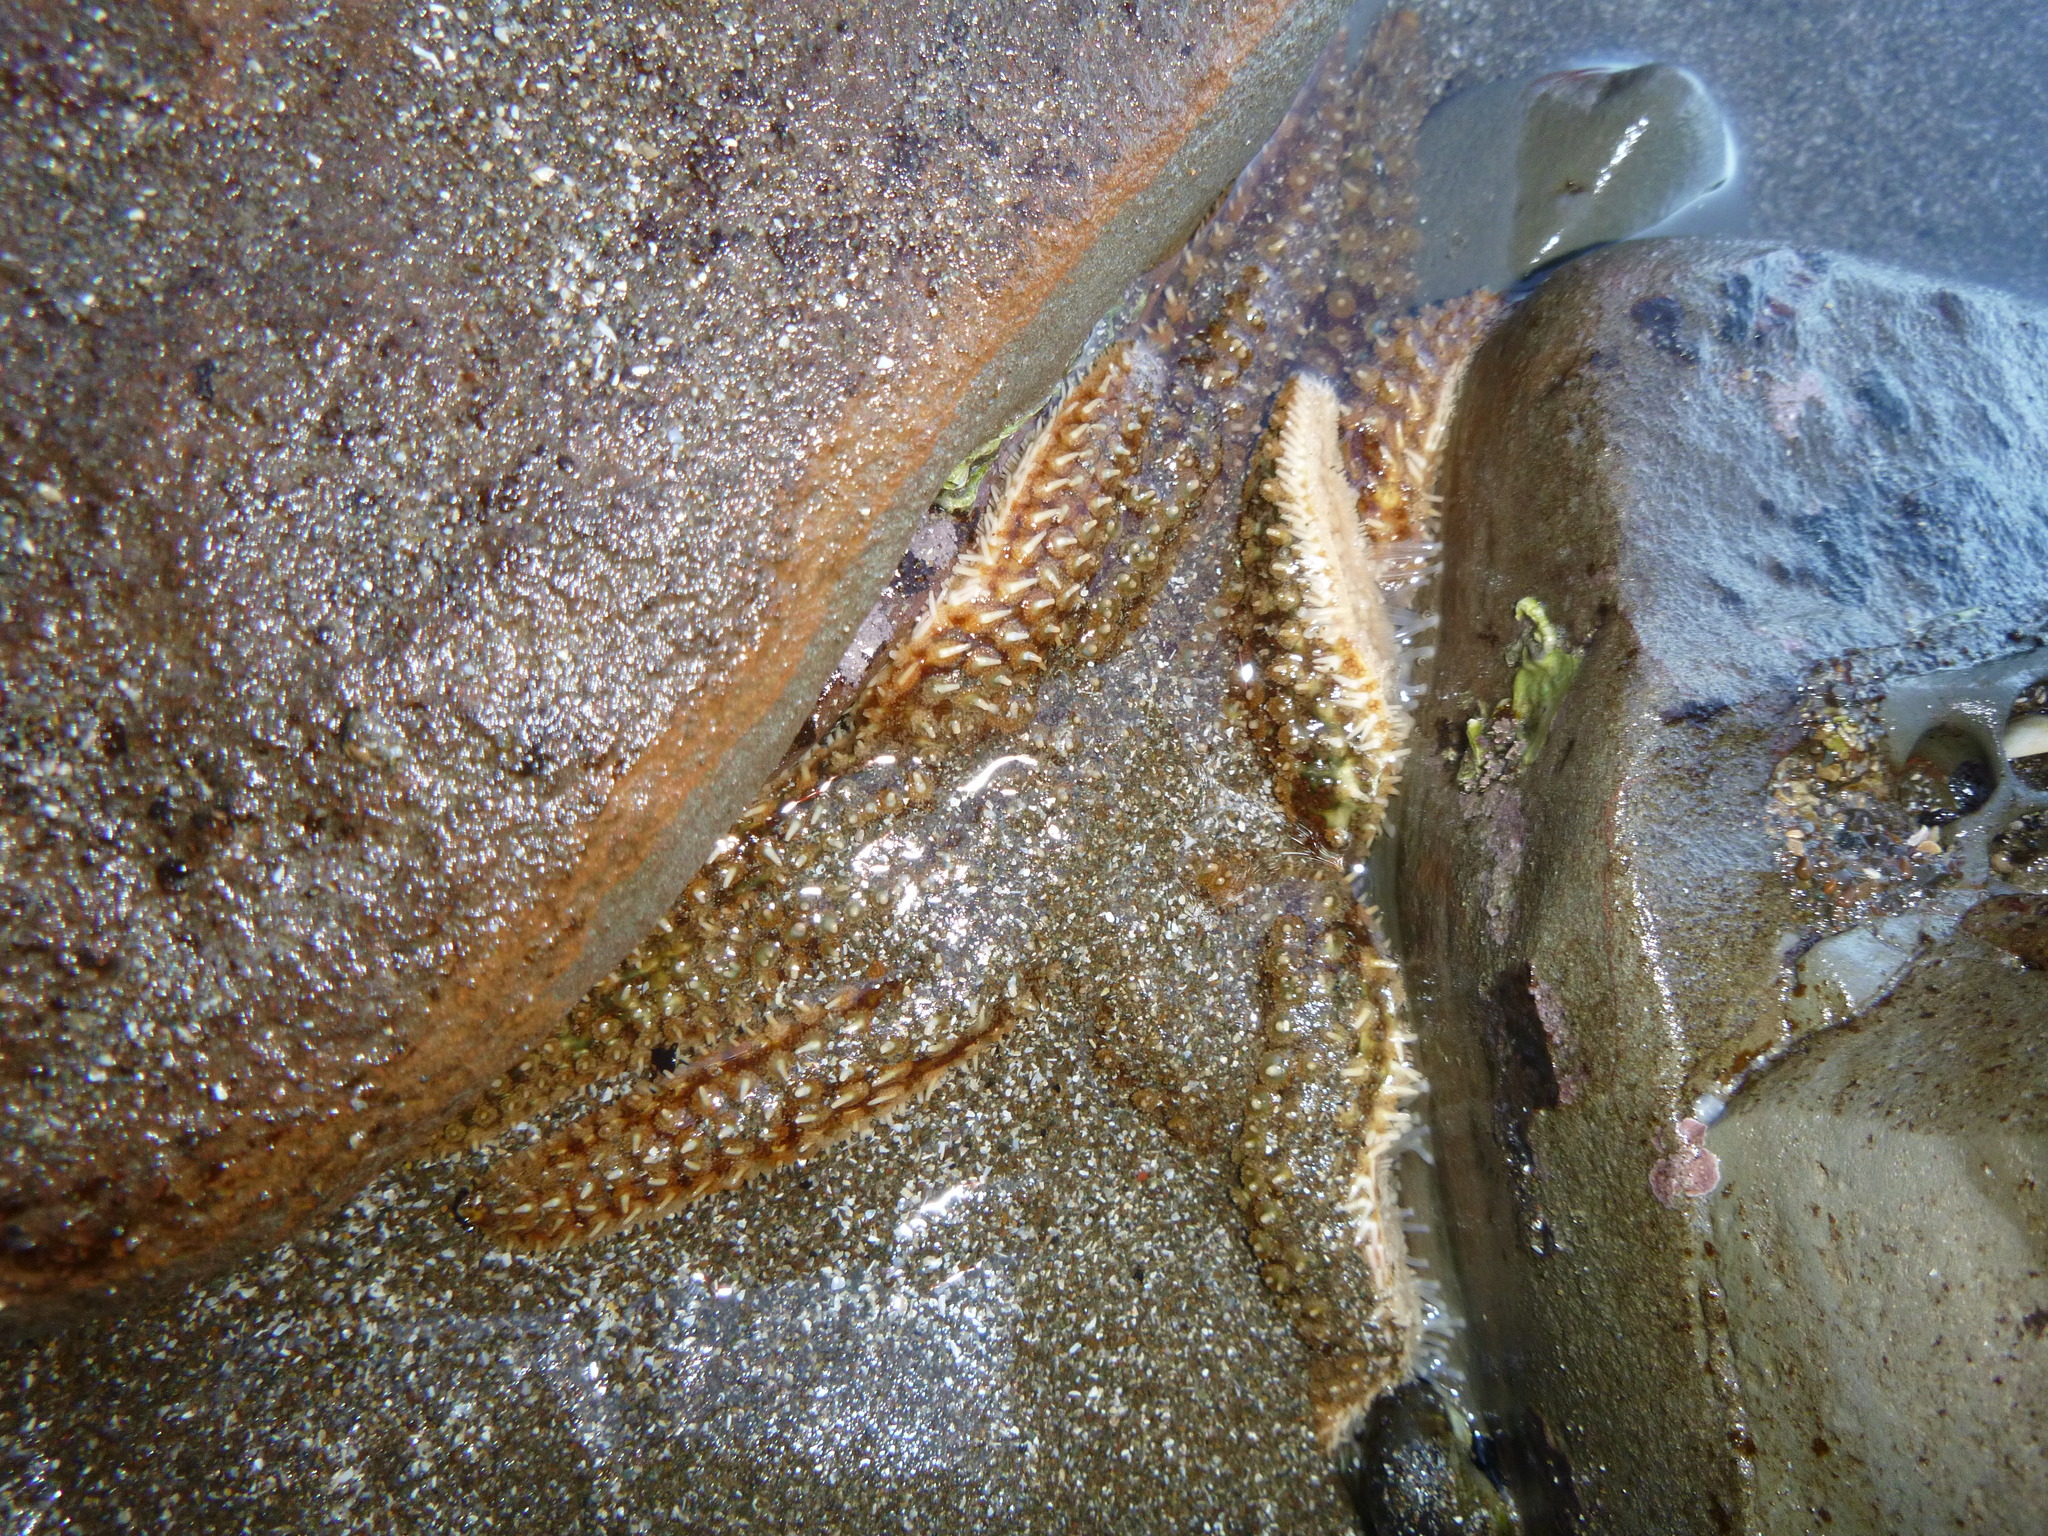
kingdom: Animalia
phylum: Echinodermata
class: Asteroidea
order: Forcipulatida
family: Asteriidae
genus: Coscinasterias
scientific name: Coscinasterias muricata
